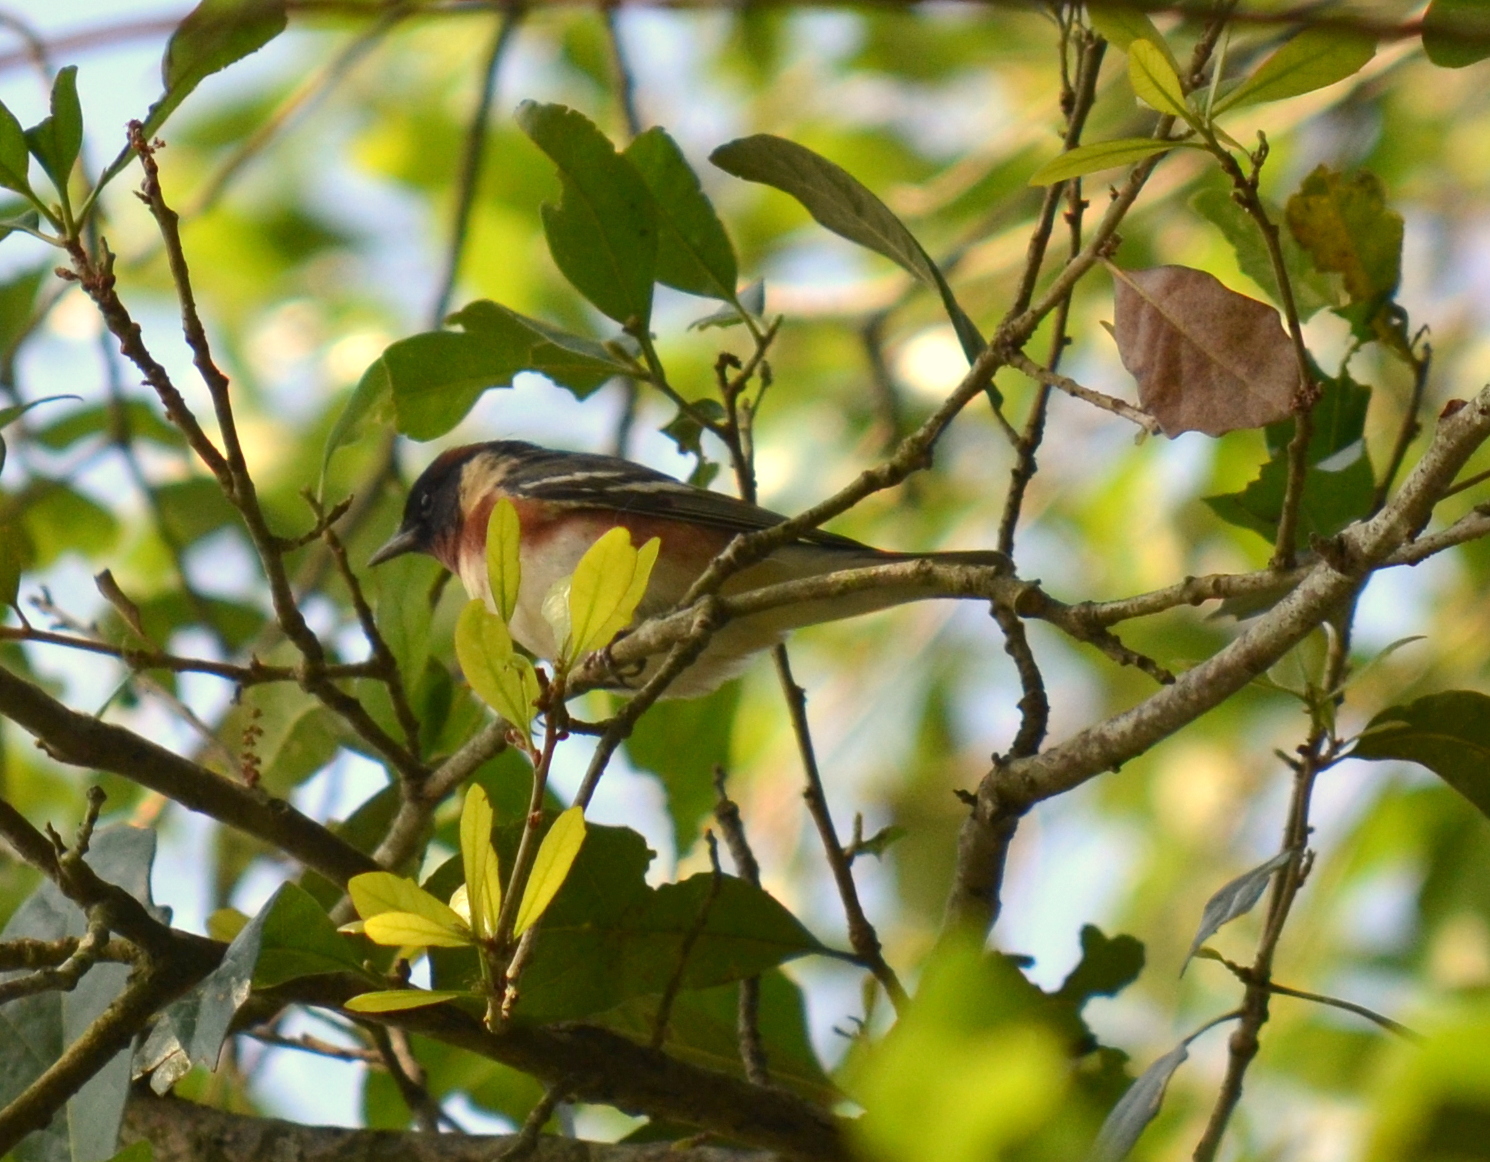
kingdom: Animalia
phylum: Chordata
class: Aves
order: Passeriformes
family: Parulidae
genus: Setophaga
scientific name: Setophaga castanea
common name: Bay-breasted warbler
